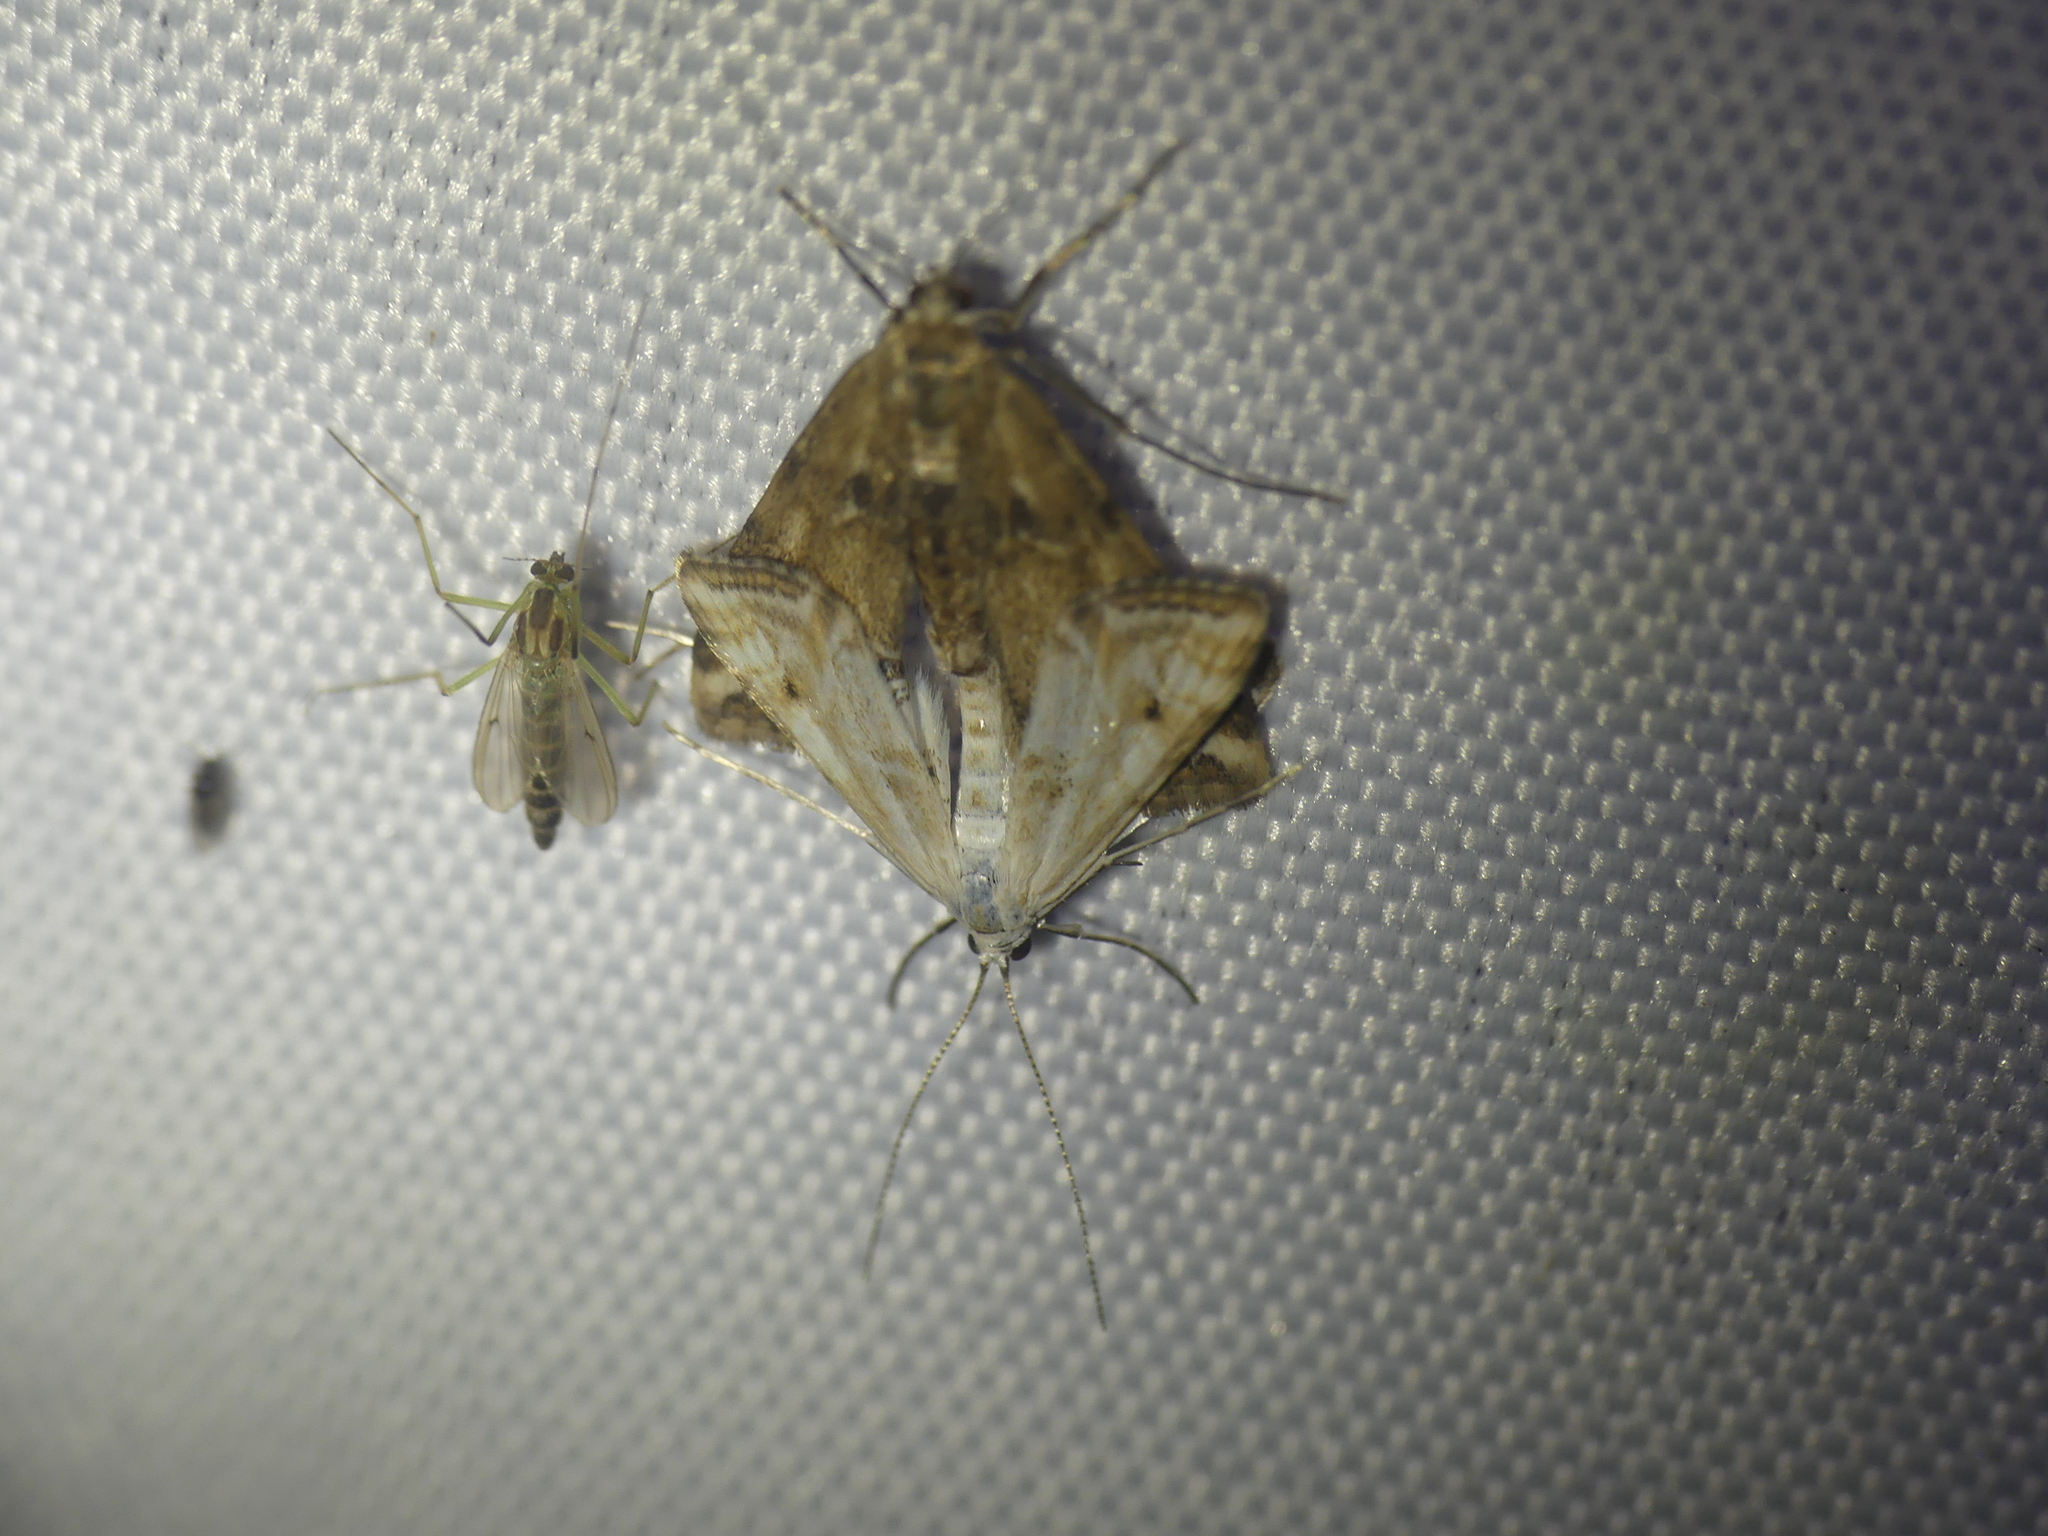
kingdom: Animalia
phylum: Arthropoda
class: Insecta
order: Lepidoptera
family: Crambidae
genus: Cataclysta
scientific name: Cataclysta lemnata
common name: Small china-mark
